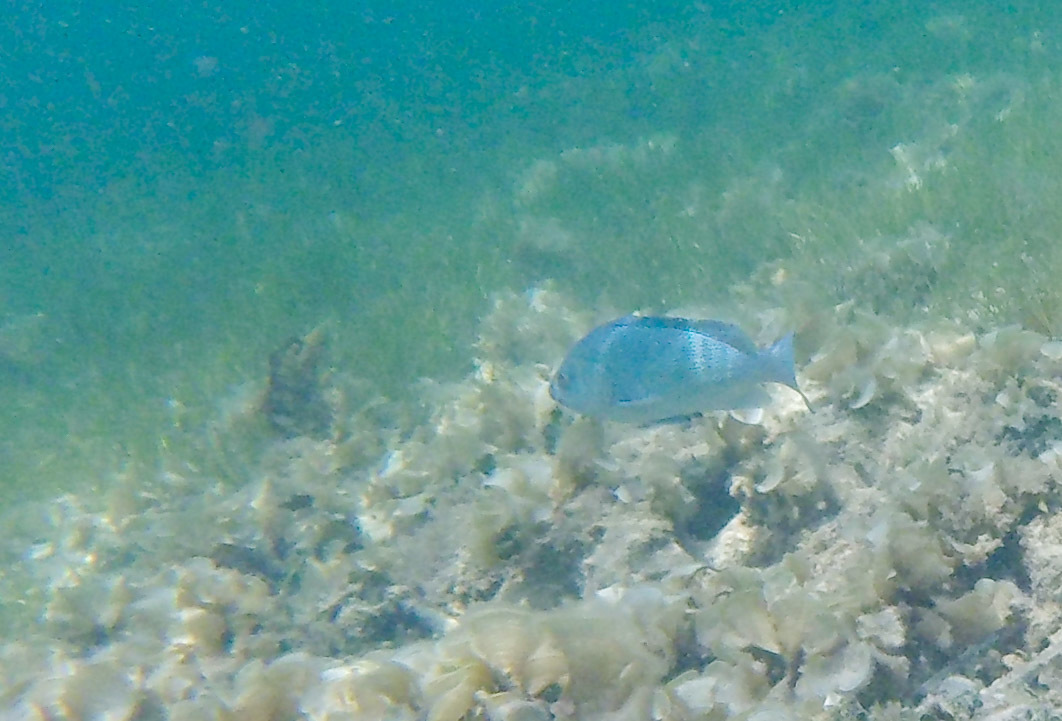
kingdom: Animalia
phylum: Chordata
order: Perciformes
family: Serranidae
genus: Epinephelus
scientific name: Epinephelus cyanopodus
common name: Speckled blue grouper
